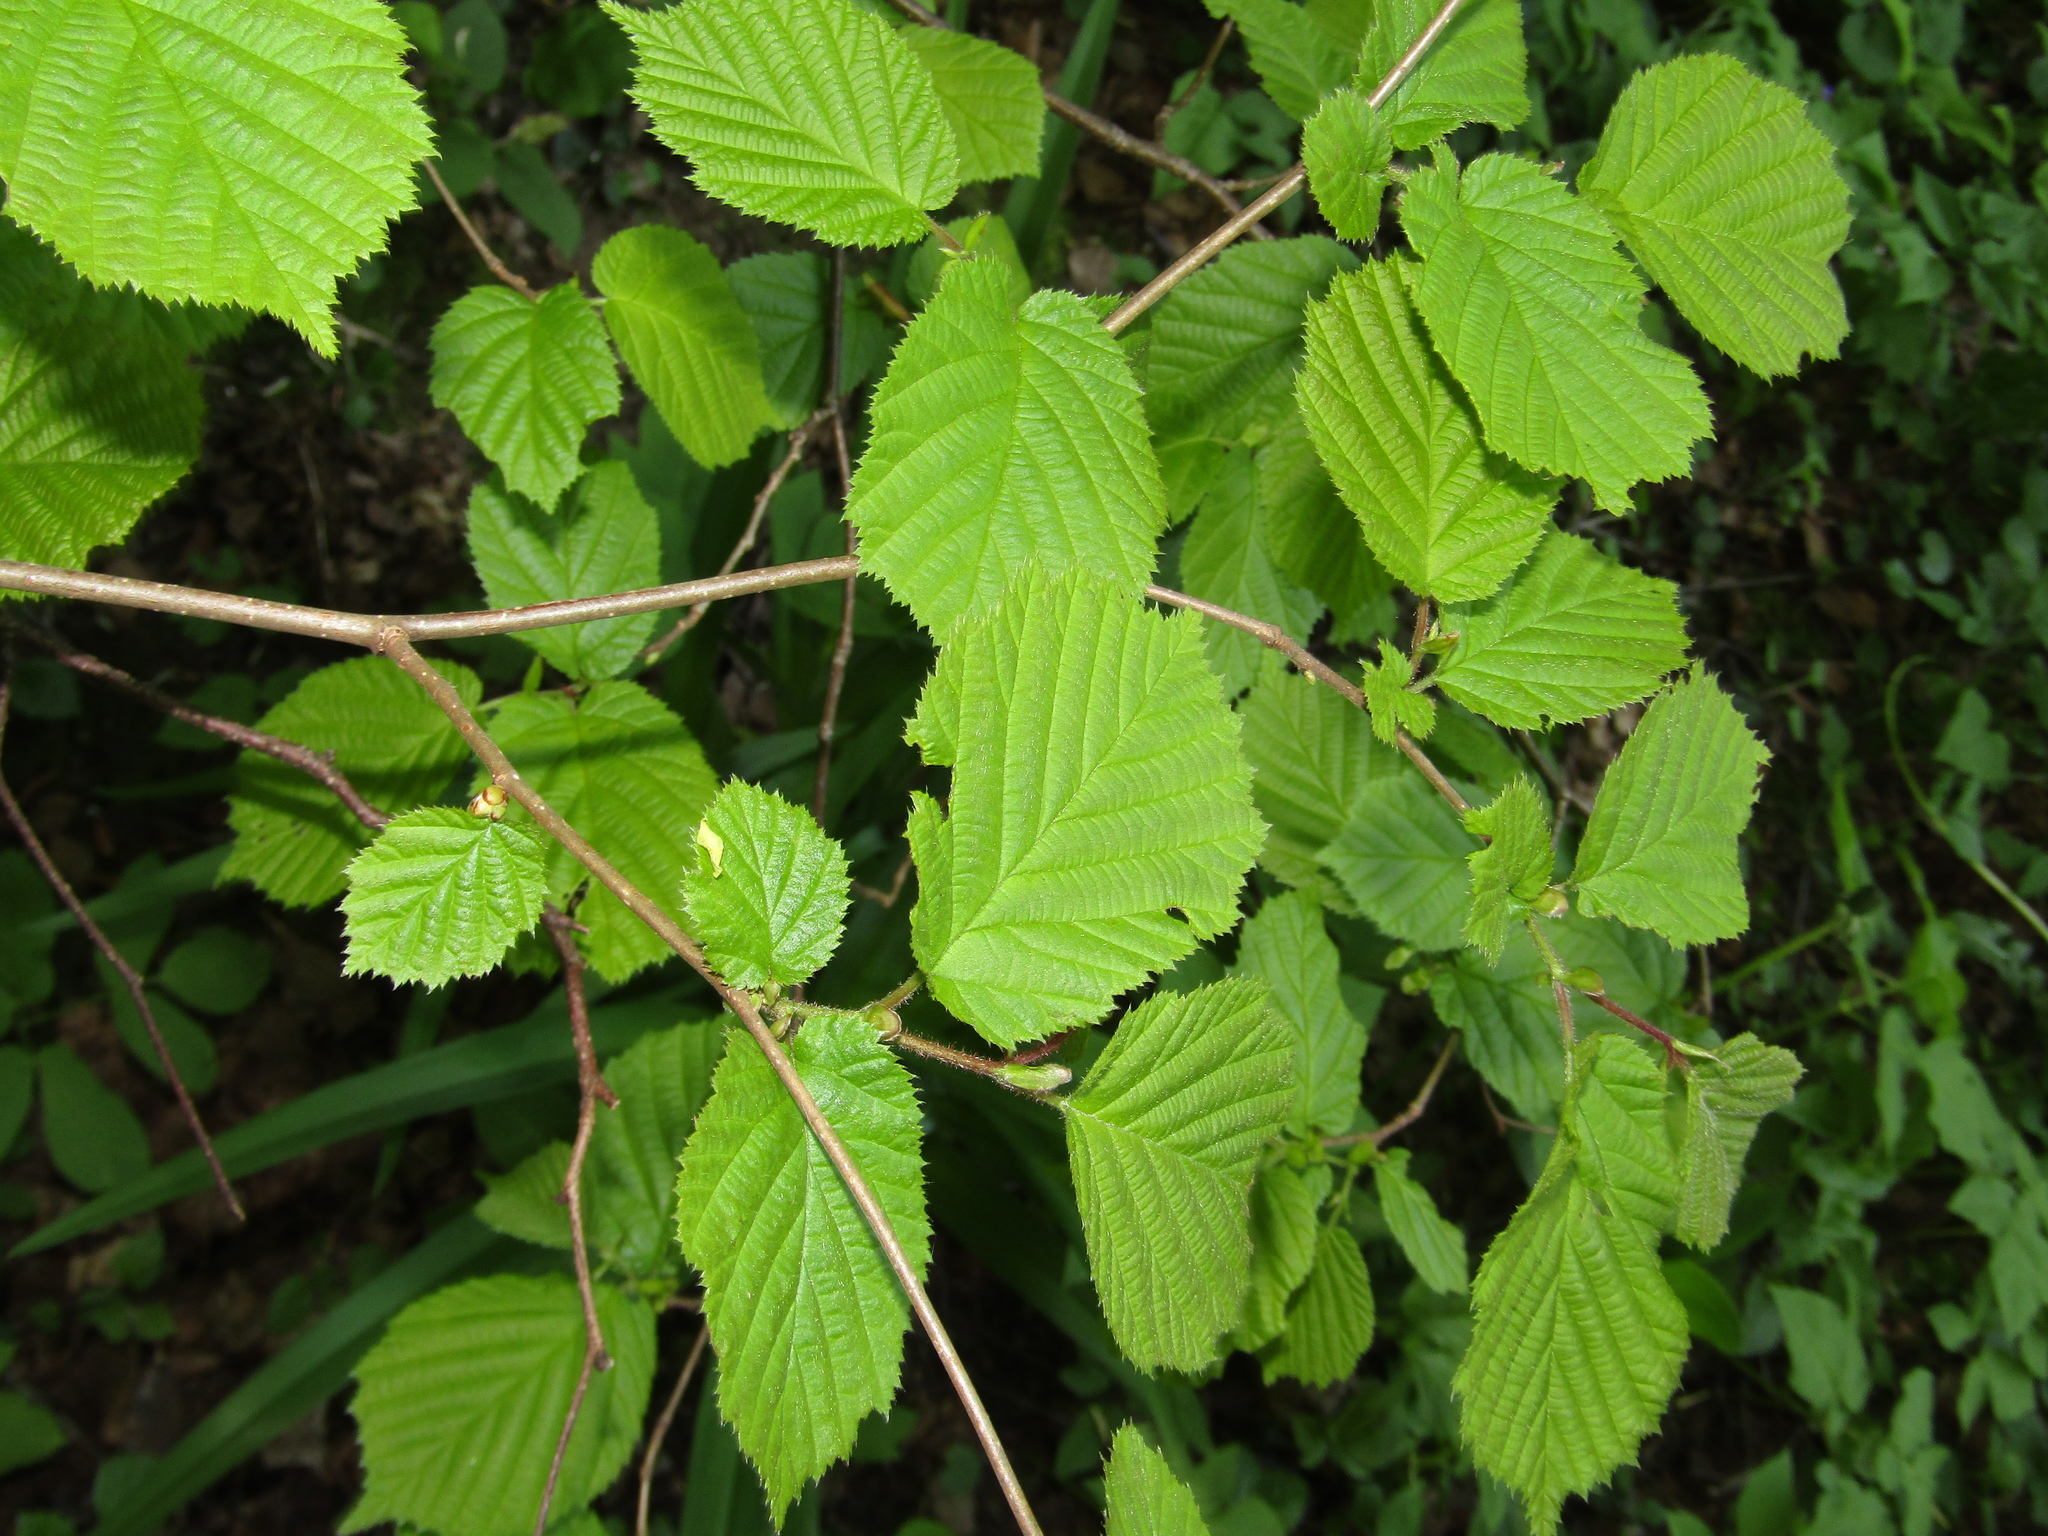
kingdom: Plantae
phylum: Tracheophyta
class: Magnoliopsida
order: Fagales
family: Betulaceae
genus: Corylus
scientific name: Corylus avellana
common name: European hazel
